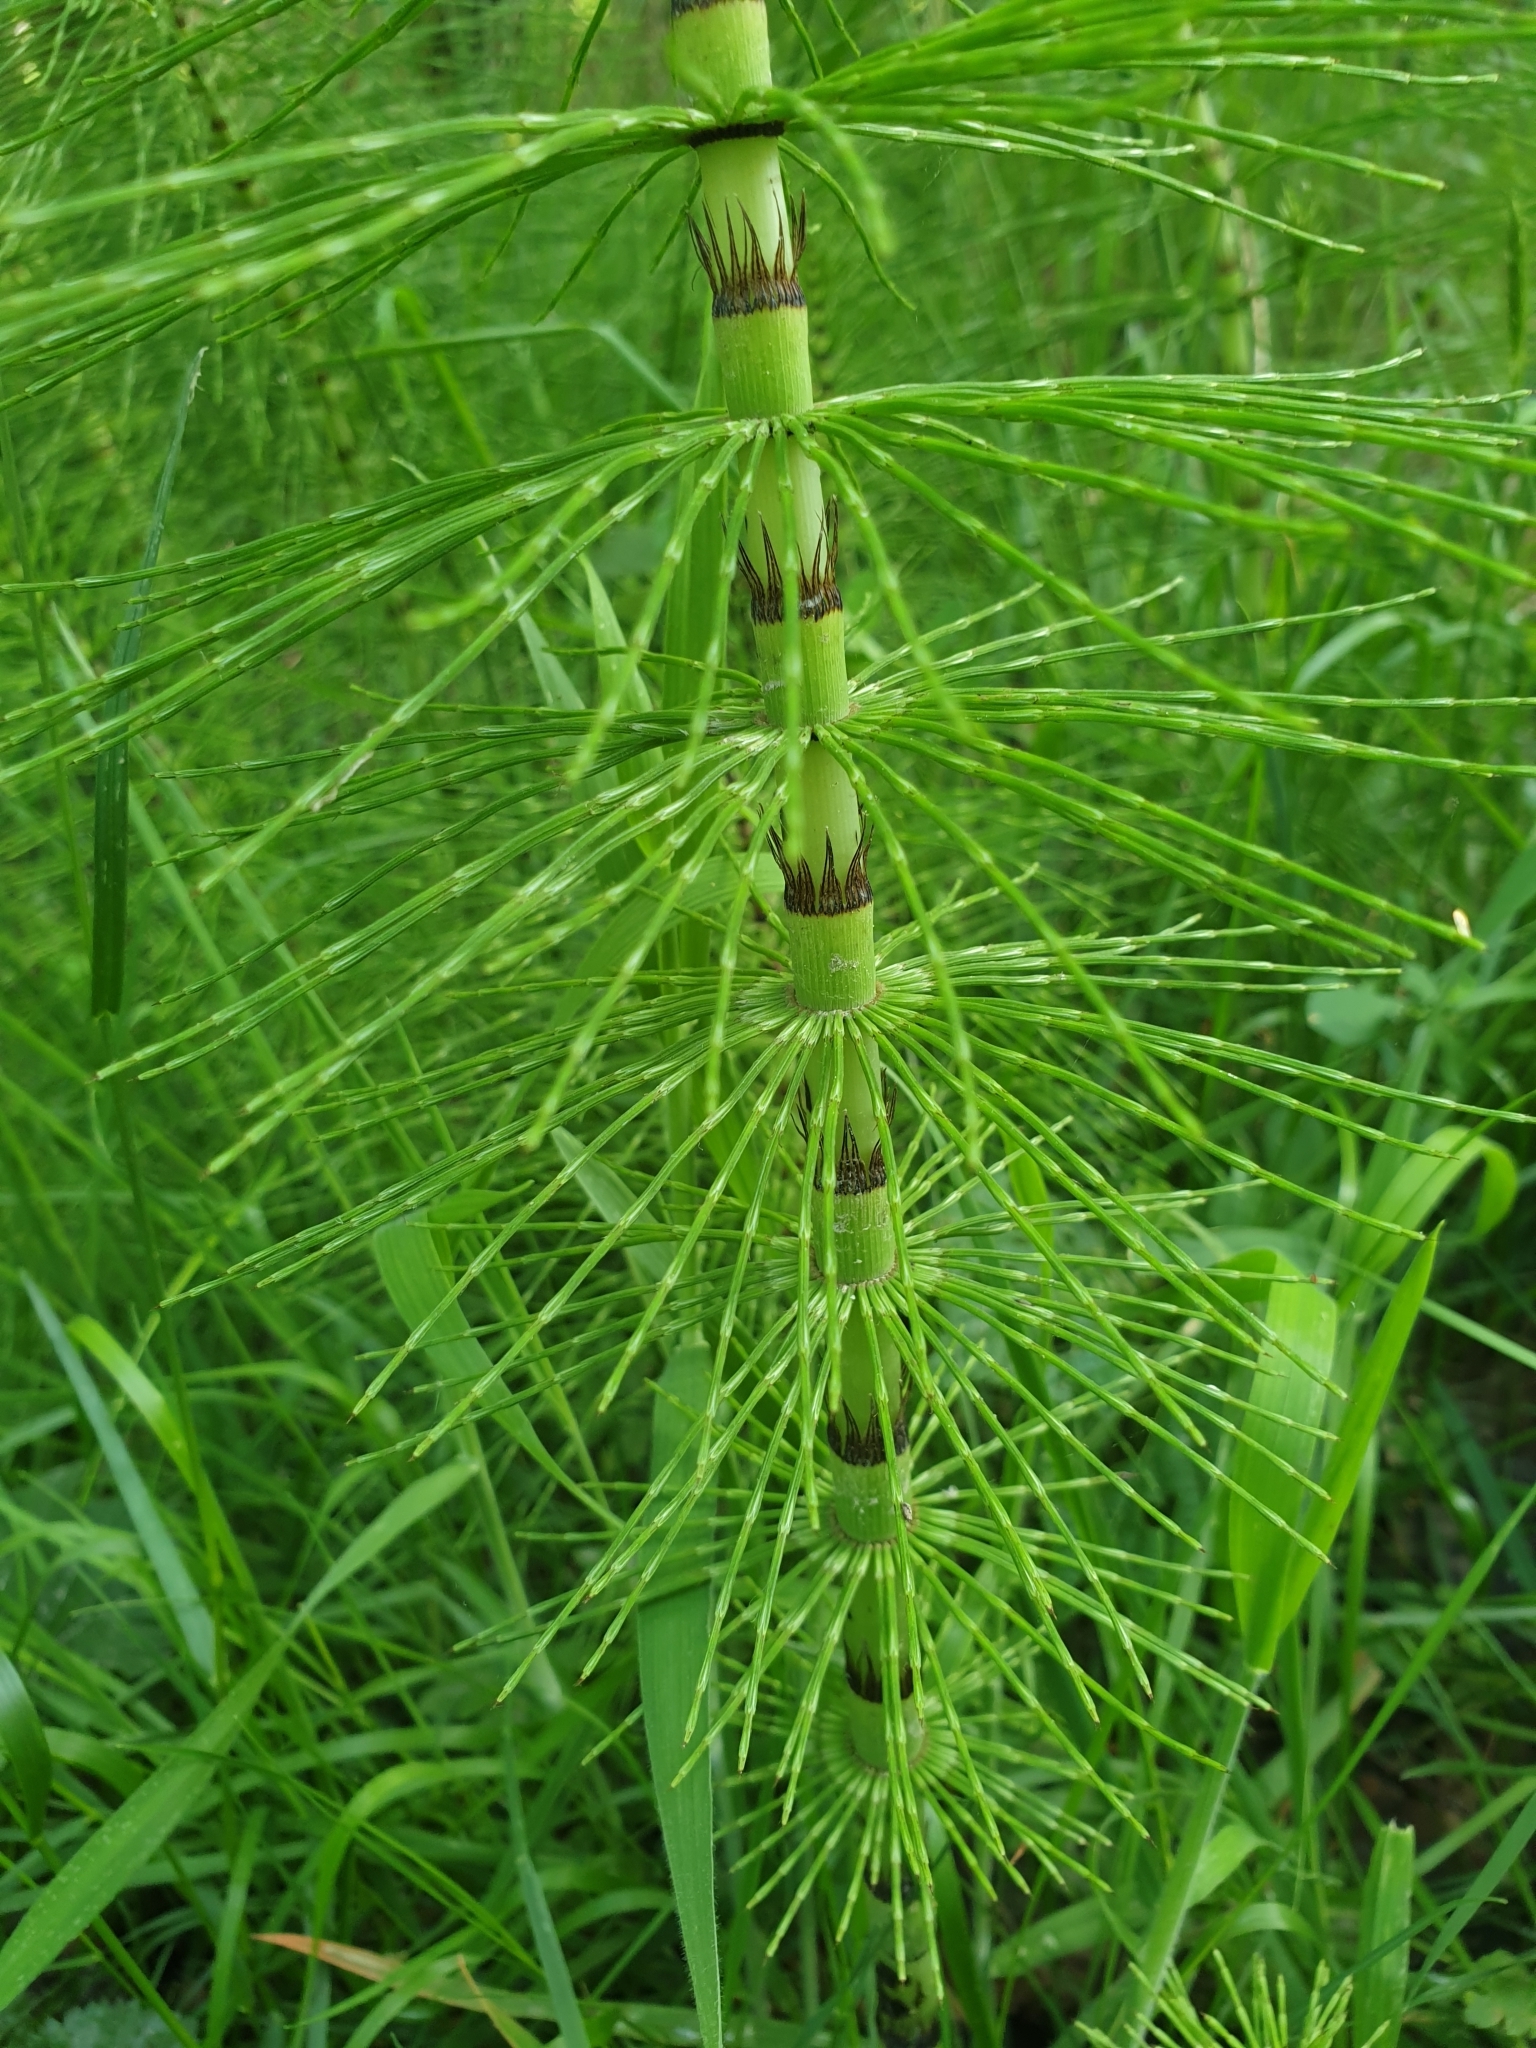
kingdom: Plantae
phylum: Tracheophyta
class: Polypodiopsida
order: Equisetales
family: Equisetaceae
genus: Equisetum
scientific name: Equisetum telmateia
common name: Great horsetail
